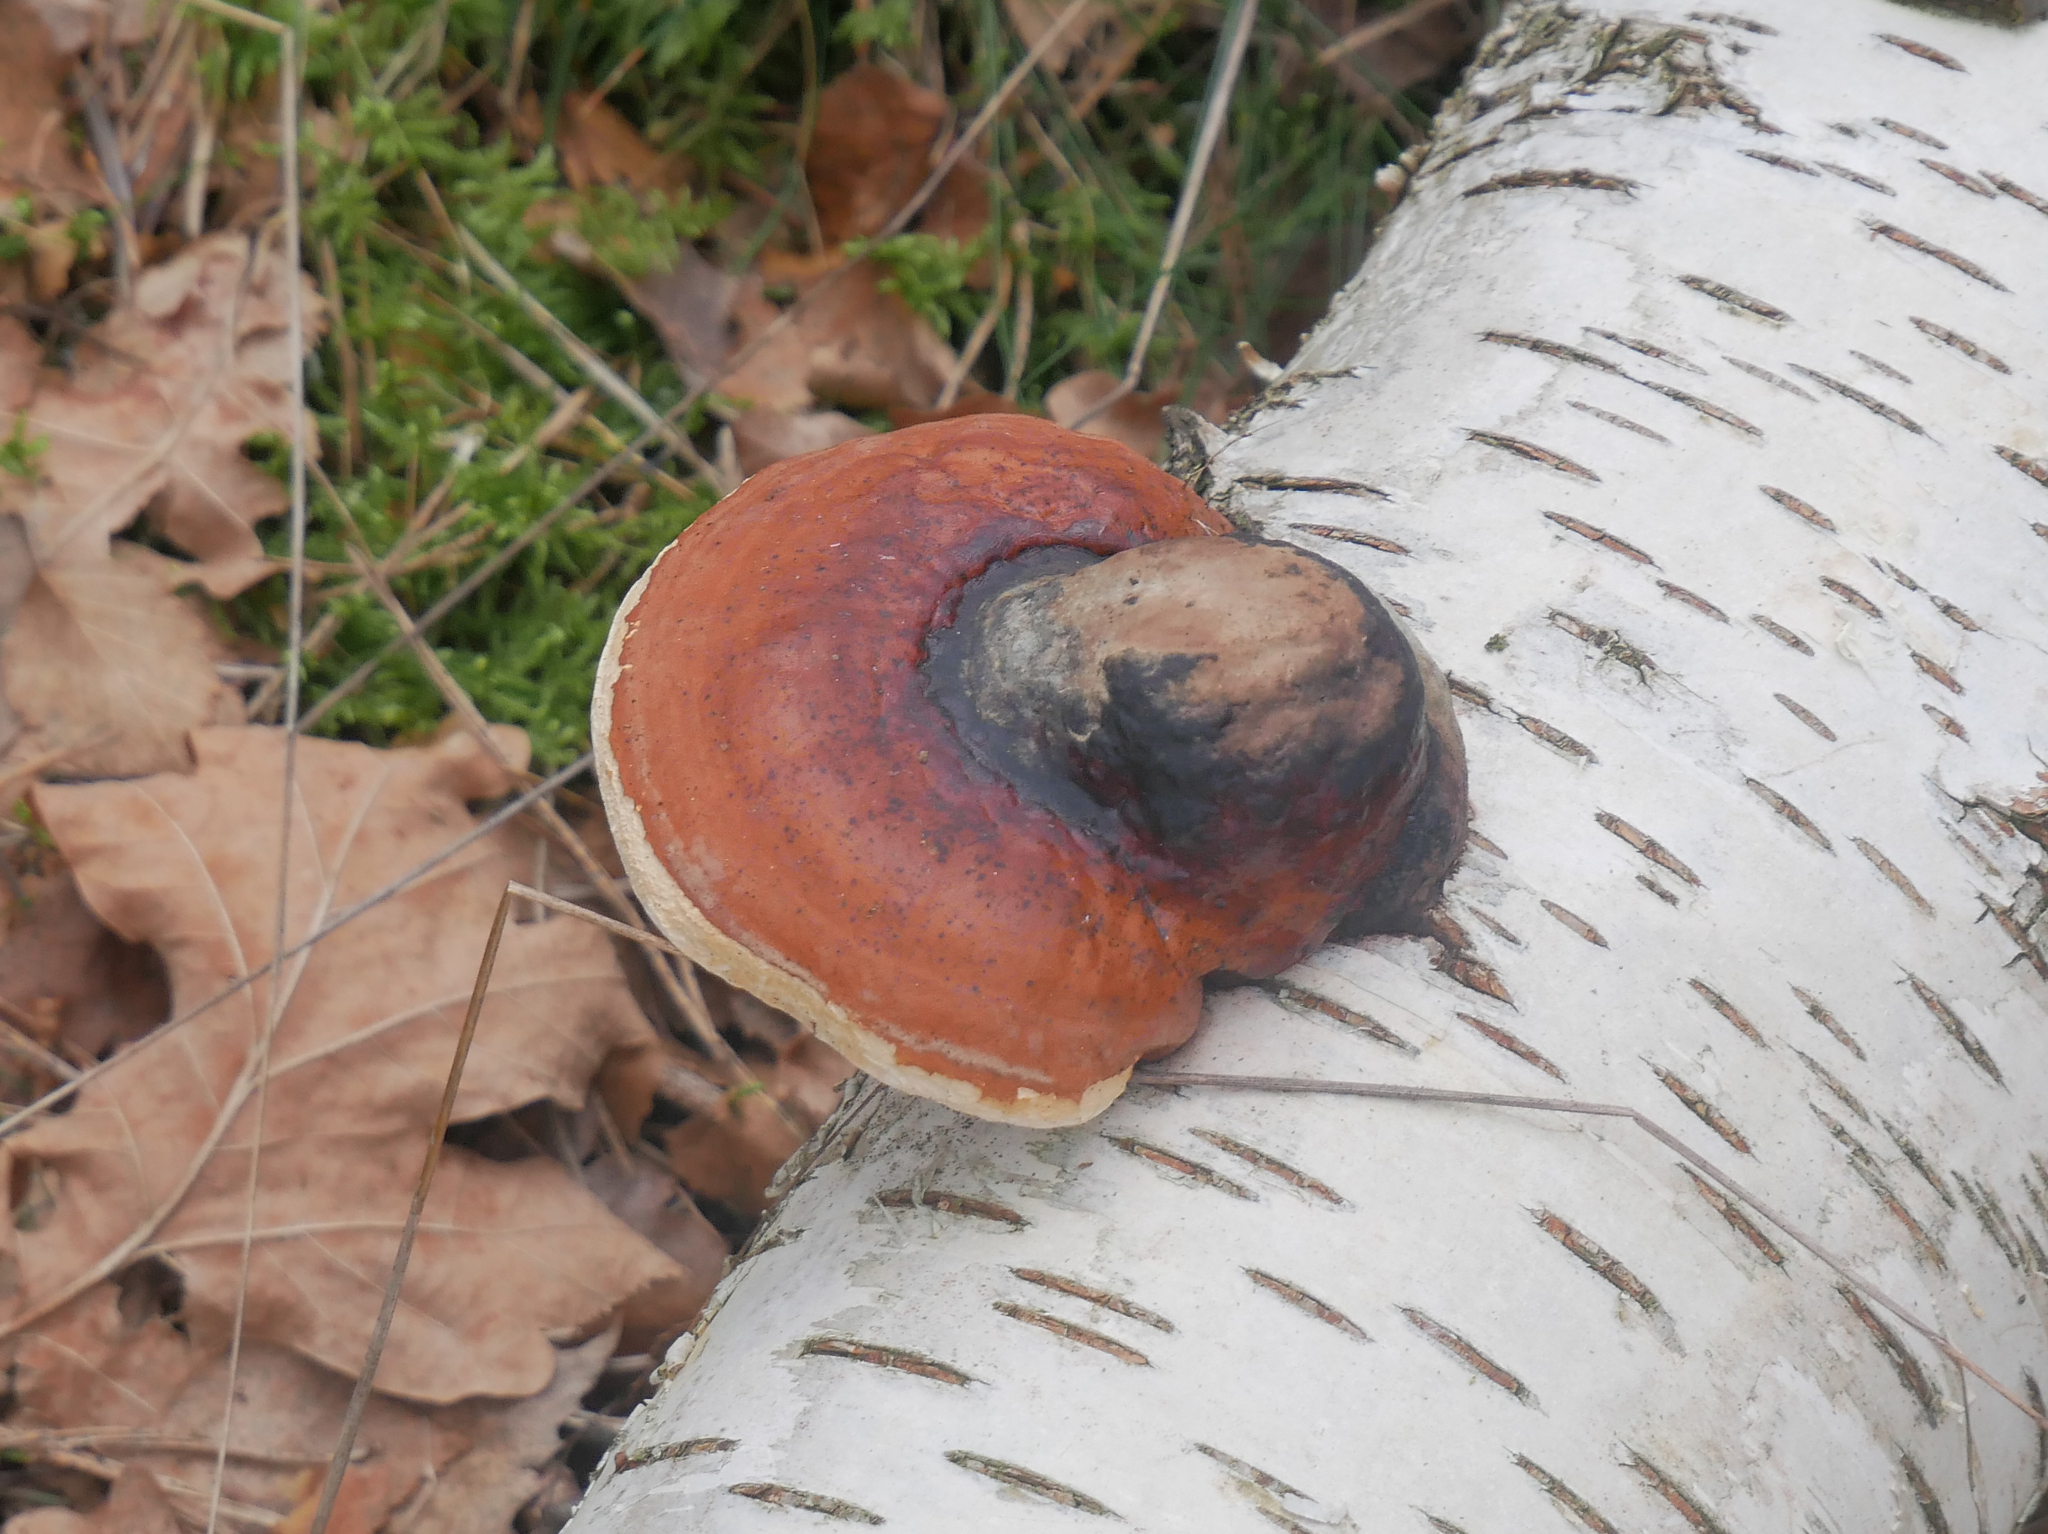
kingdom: Fungi
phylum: Basidiomycota
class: Agaricomycetes
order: Polyporales
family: Fomitopsidaceae
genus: Fomitopsis
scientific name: Fomitopsis pinicola
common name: Red-belted bracket
